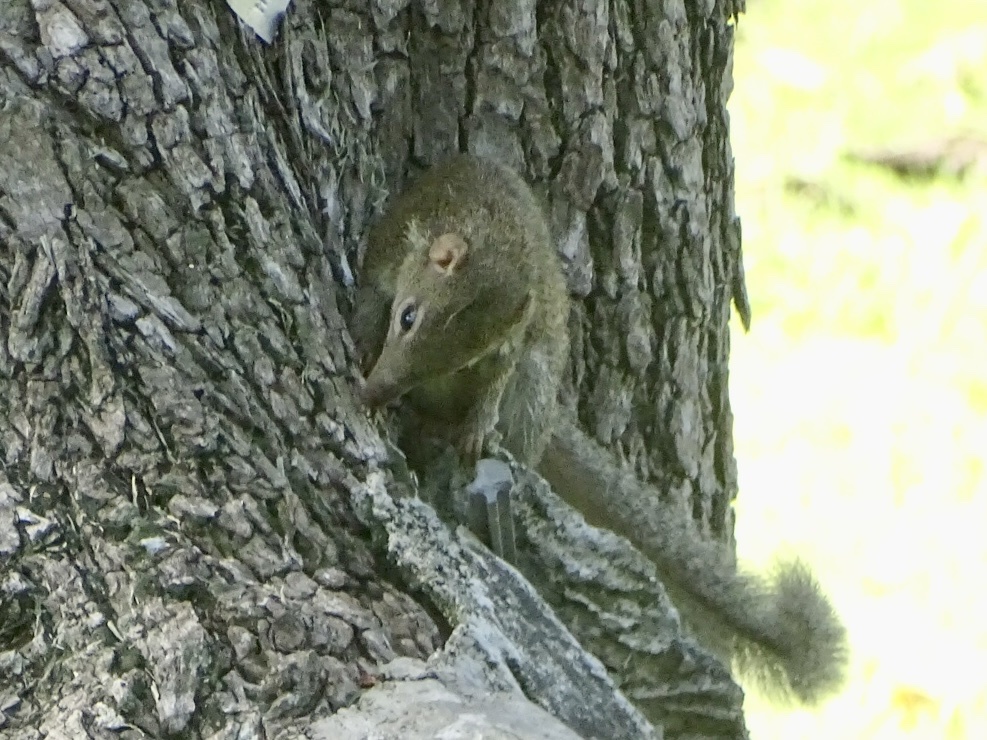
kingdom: Animalia
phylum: Chordata
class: Mammalia
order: Scandentia
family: Tupaiidae
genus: Tupaia
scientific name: Tupaia belangeri
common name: Northern treeshrew
